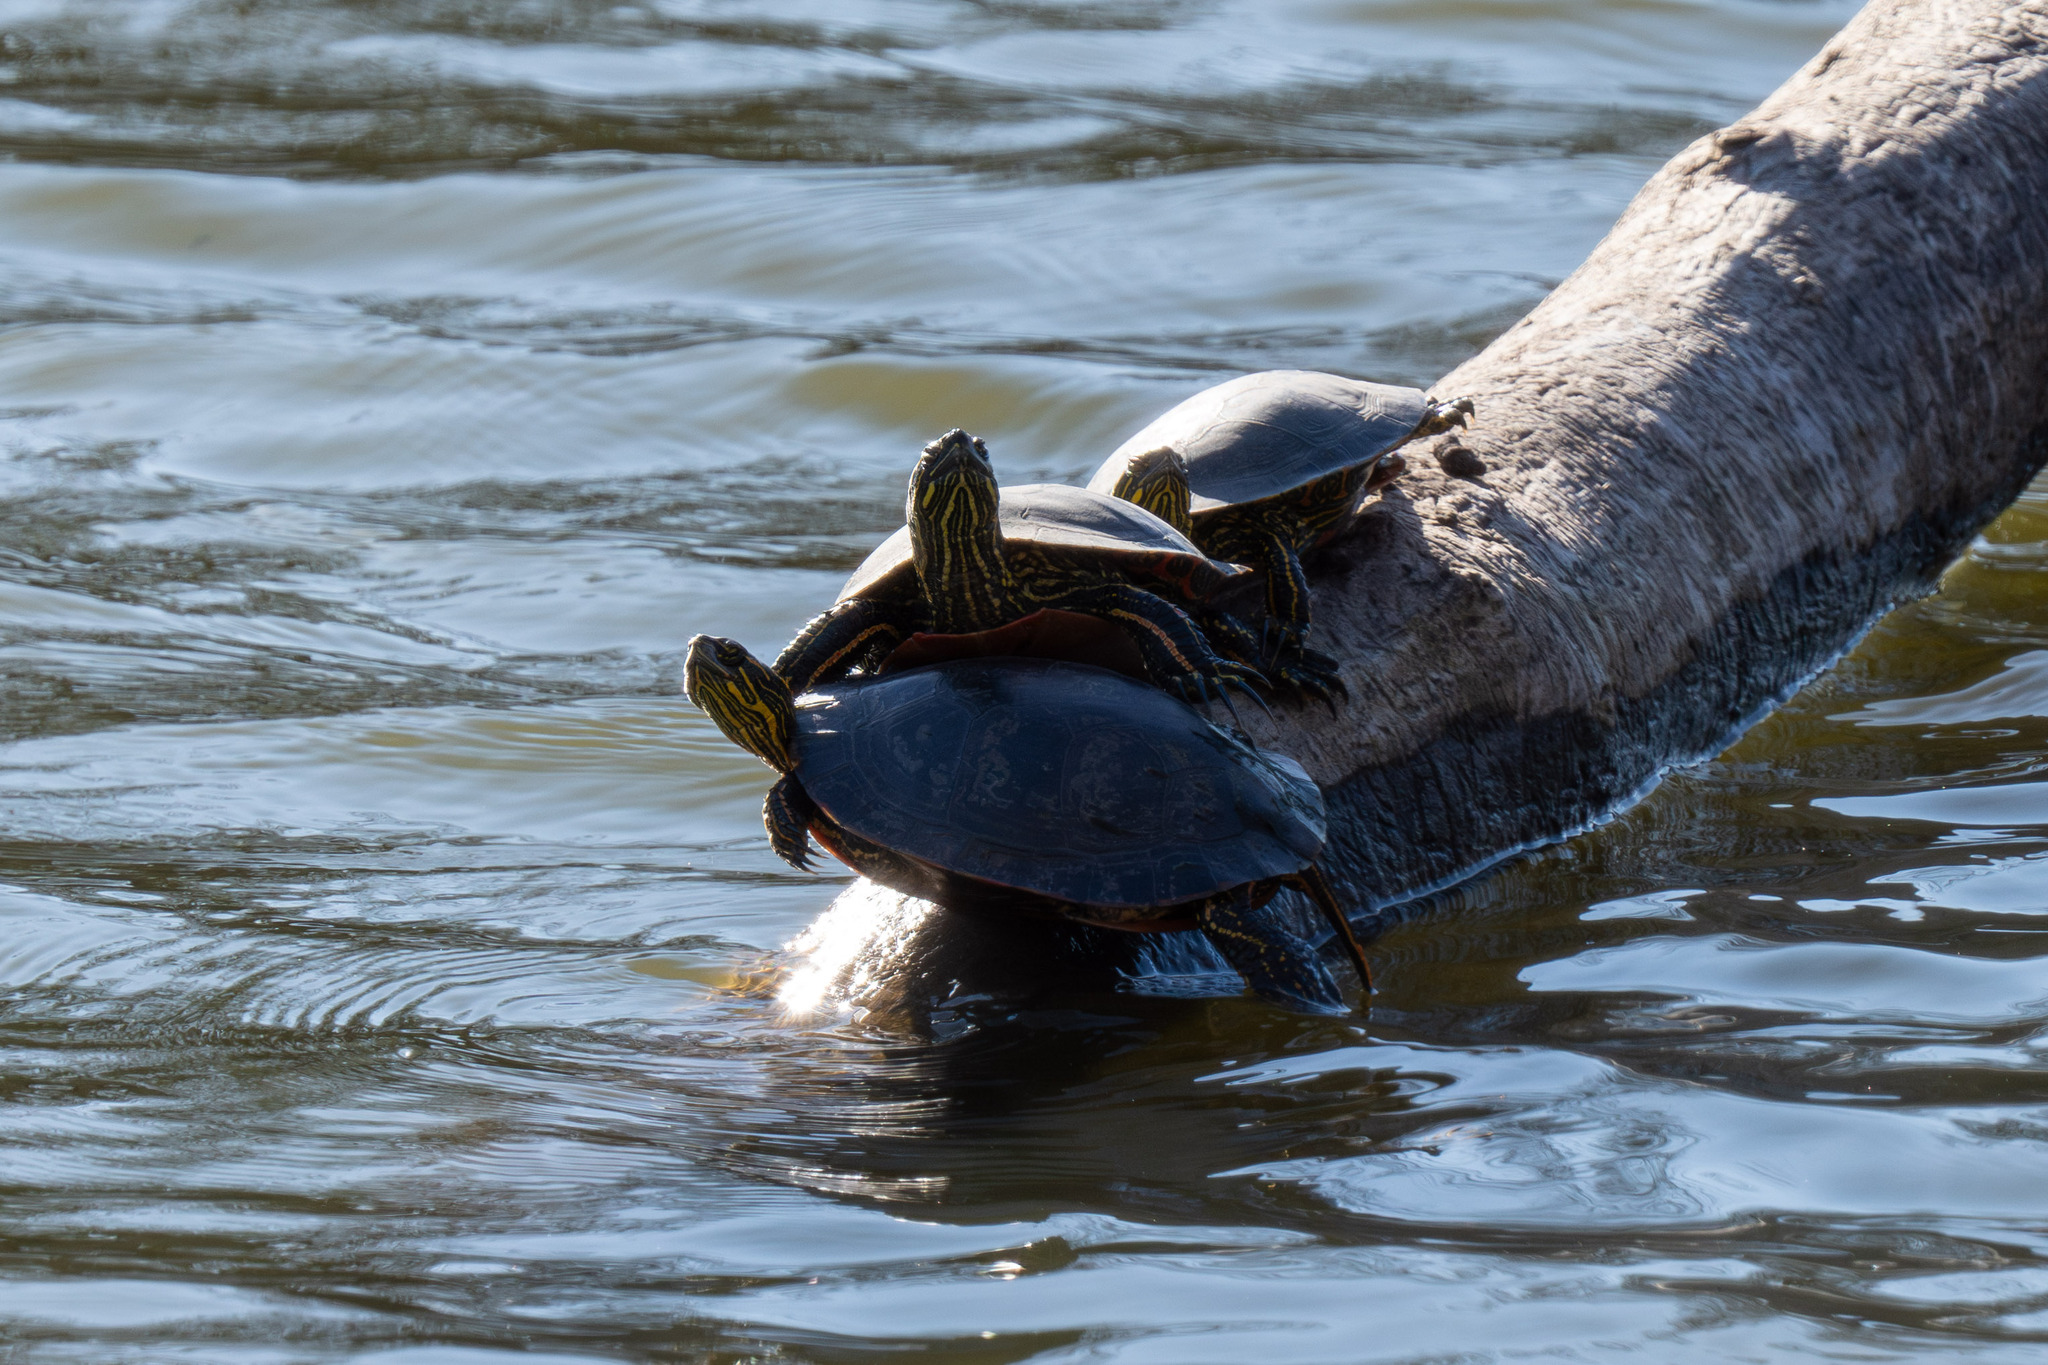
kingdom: Animalia
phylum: Chordata
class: Testudines
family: Emydidae
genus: Chrysemys
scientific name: Chrysemys picta
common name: Painted turtle
